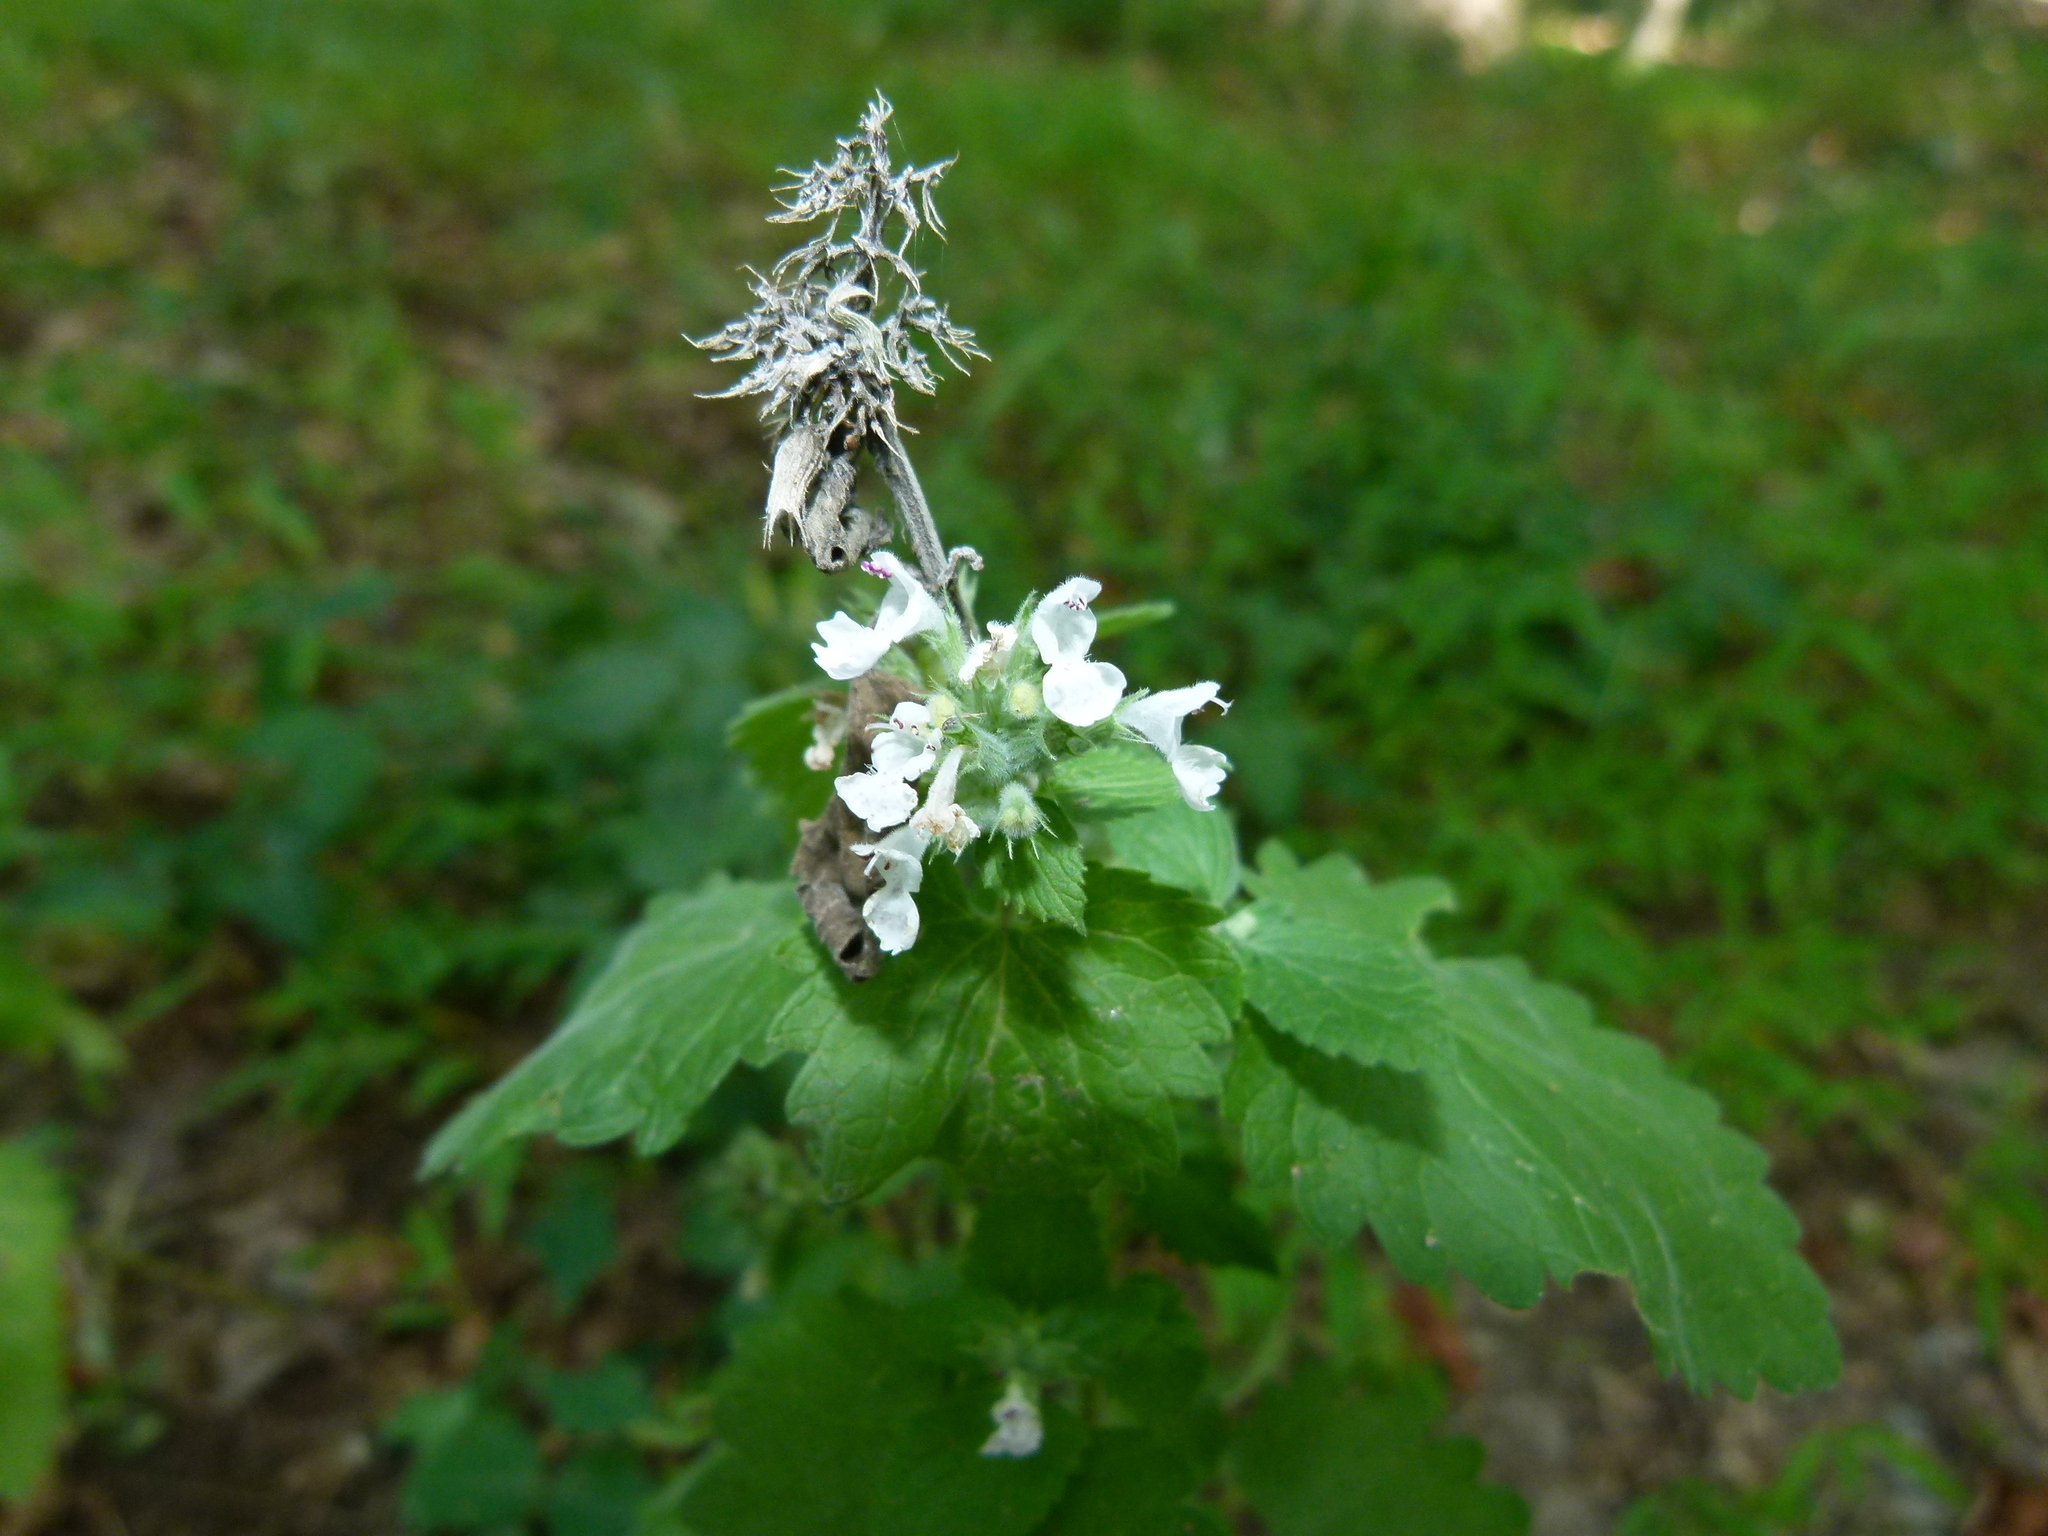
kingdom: Plantae
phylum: Tracheophyta
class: Magnoliopsida
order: Lamiales
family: Lamiaceae
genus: Nepeta
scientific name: Nepeta cataria
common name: Catnip
